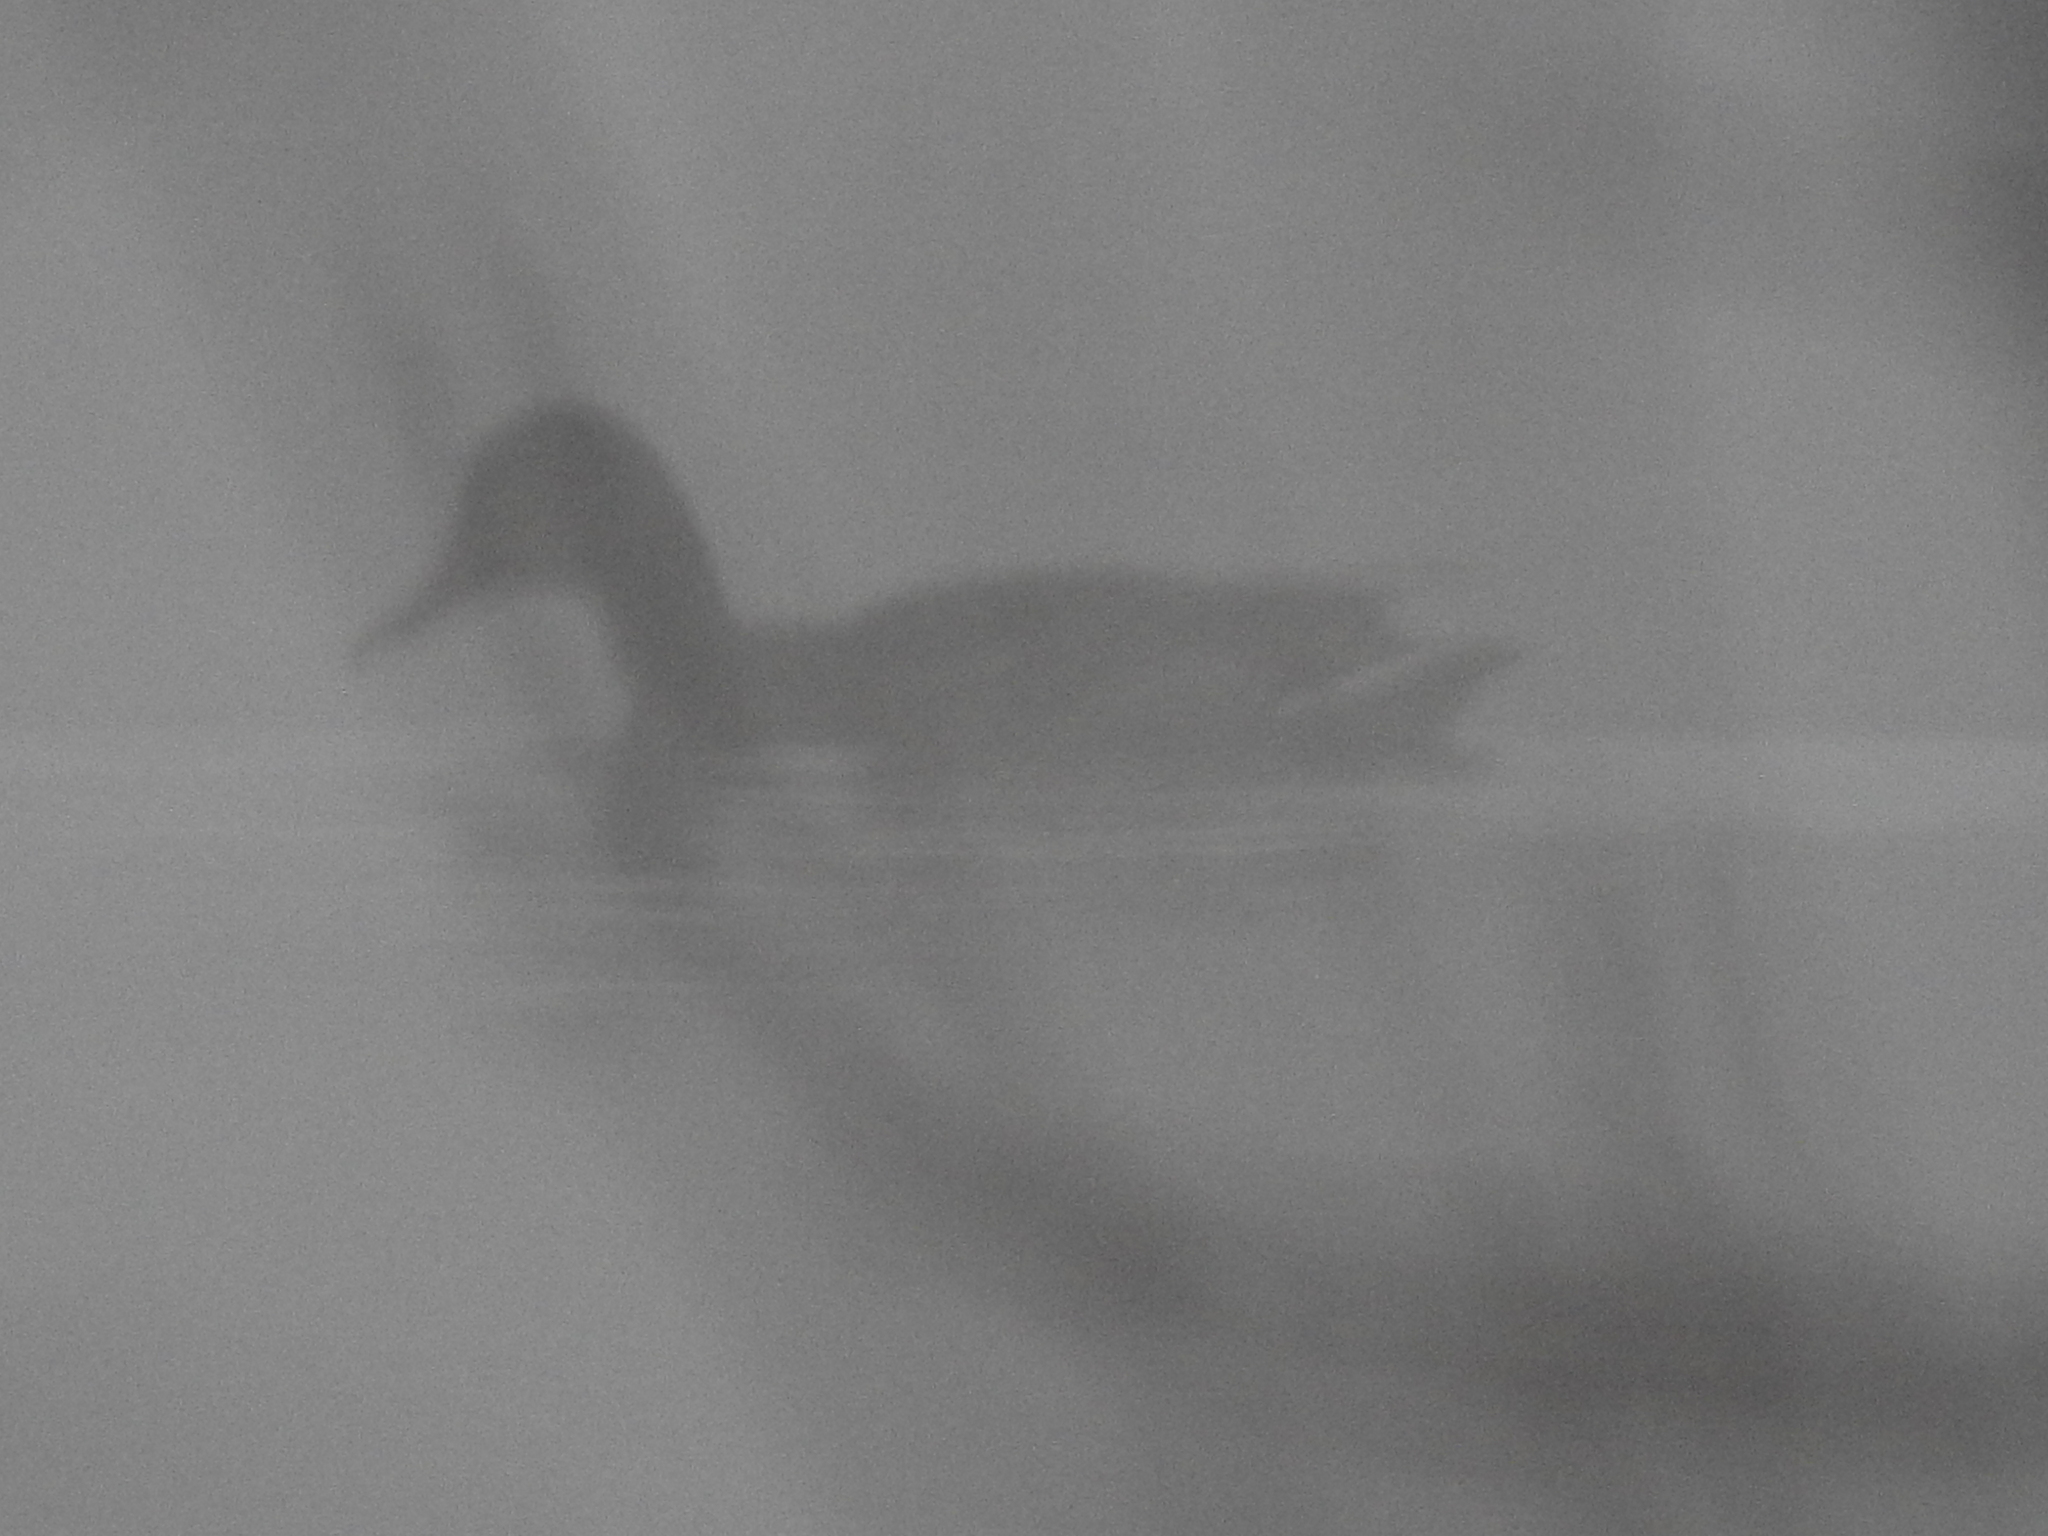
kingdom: Animalia
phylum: Chordata
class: Aves
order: Anseriformes
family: Anatidae
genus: Anas
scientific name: Anas platyrhynchos
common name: Mallard
